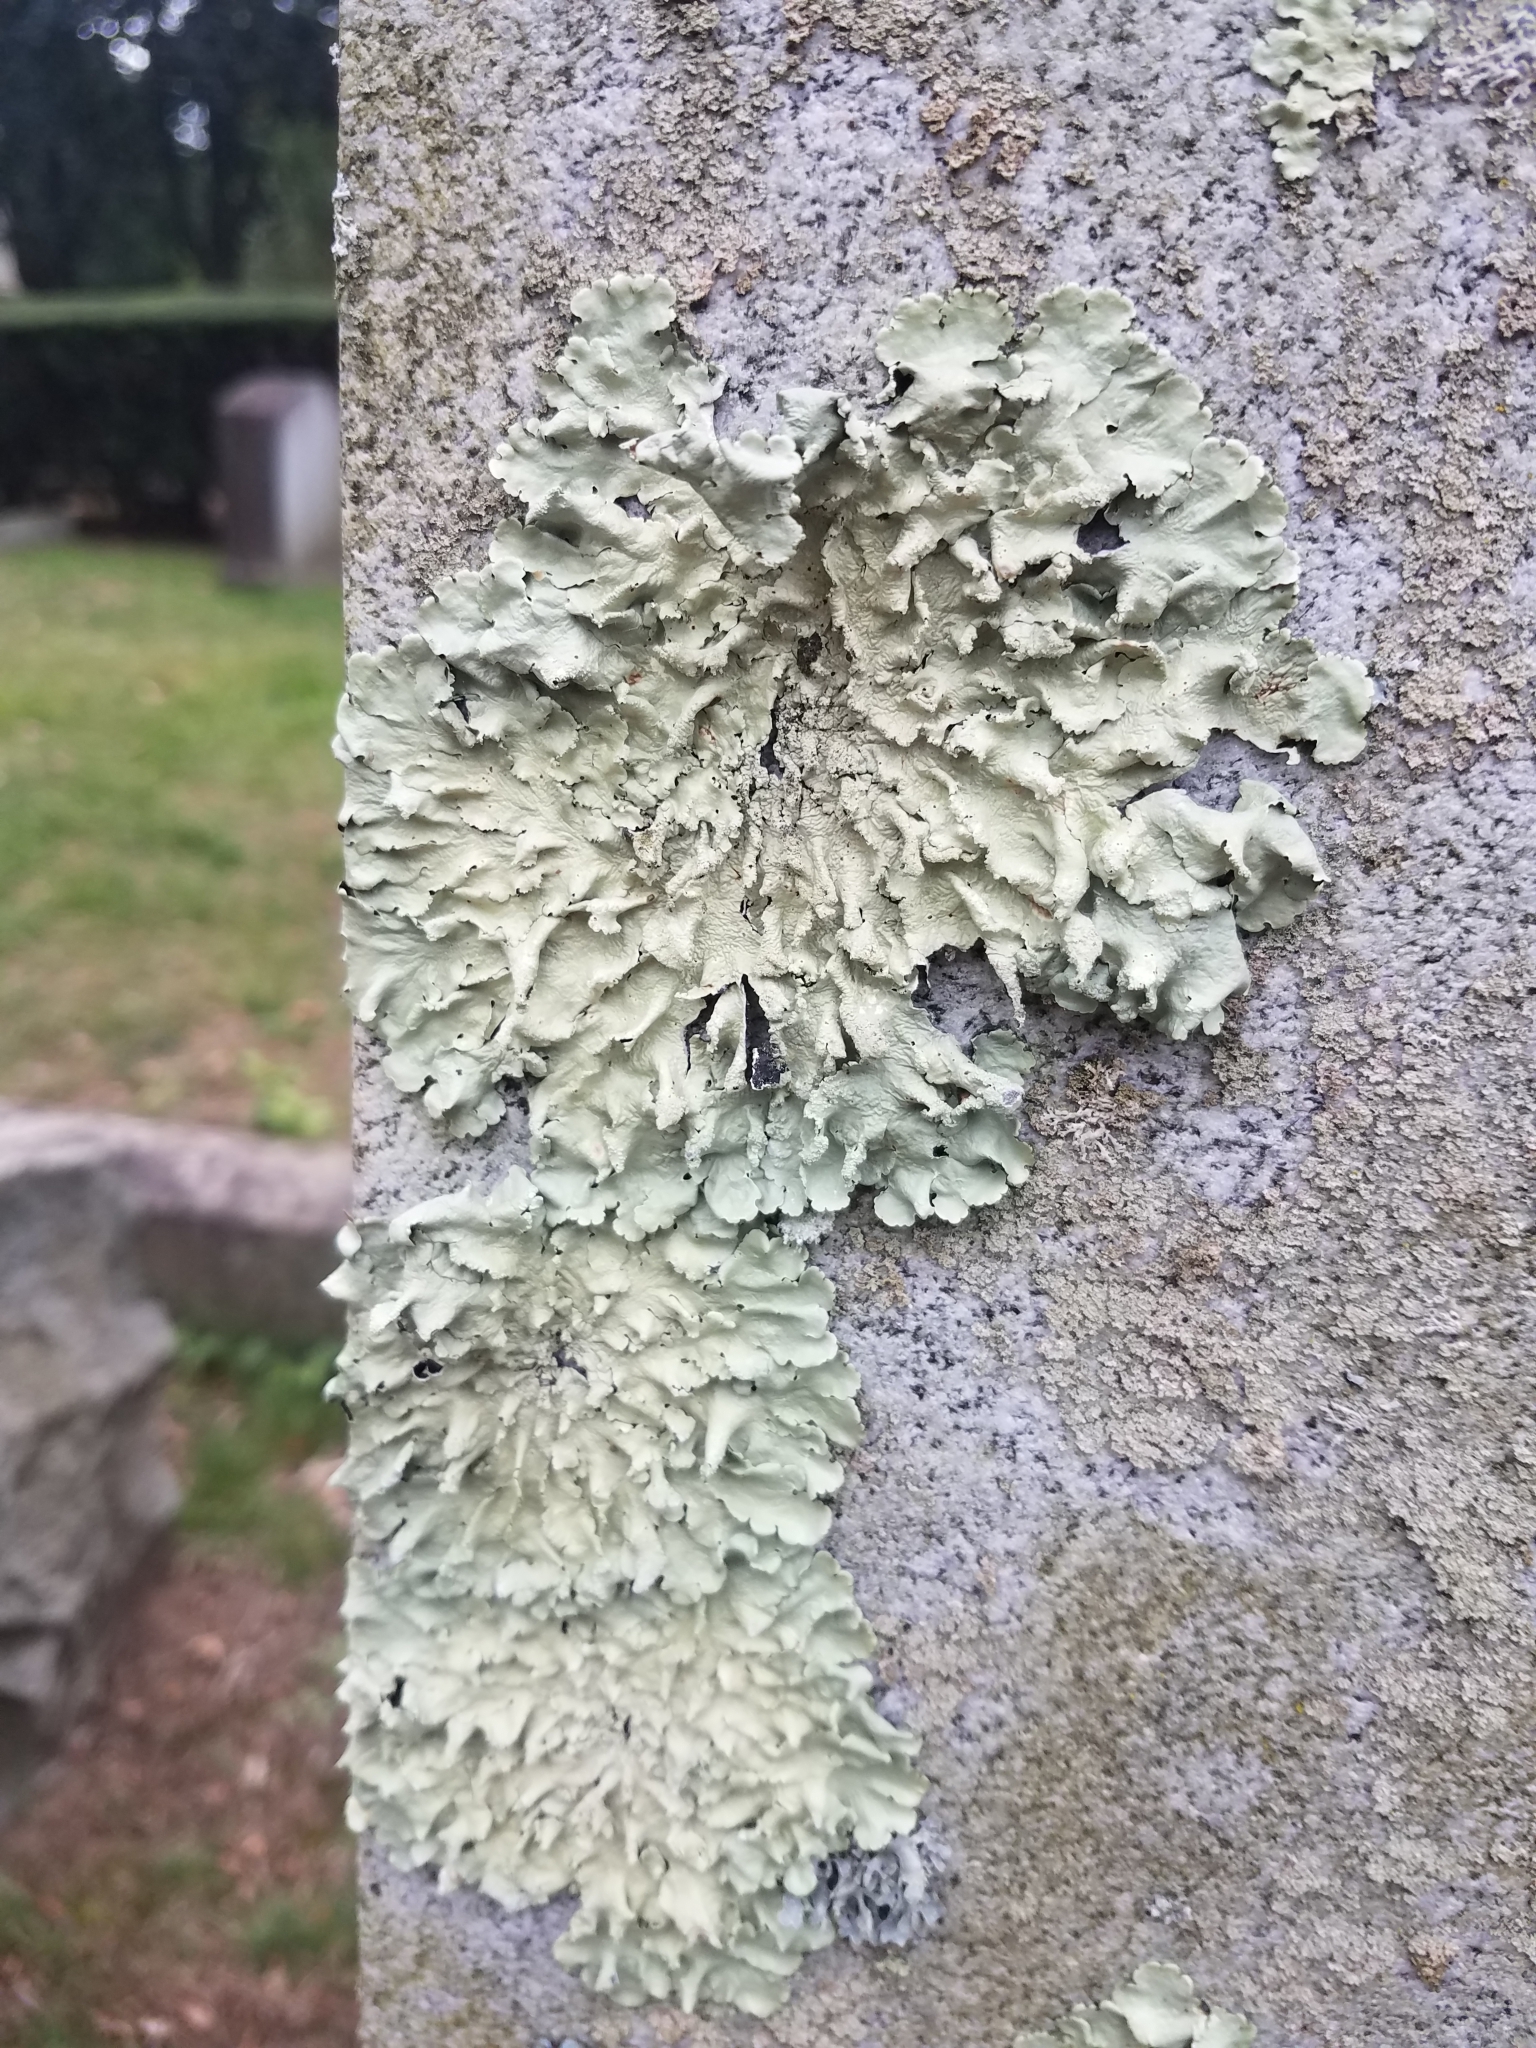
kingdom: Fungi
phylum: Ascomycota
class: Lecanoromycetes
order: Lecanorales
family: Parmeliaceae
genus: Flavoparmelia
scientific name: Flavoparmelia caperata
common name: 40-mile per hour lichen
